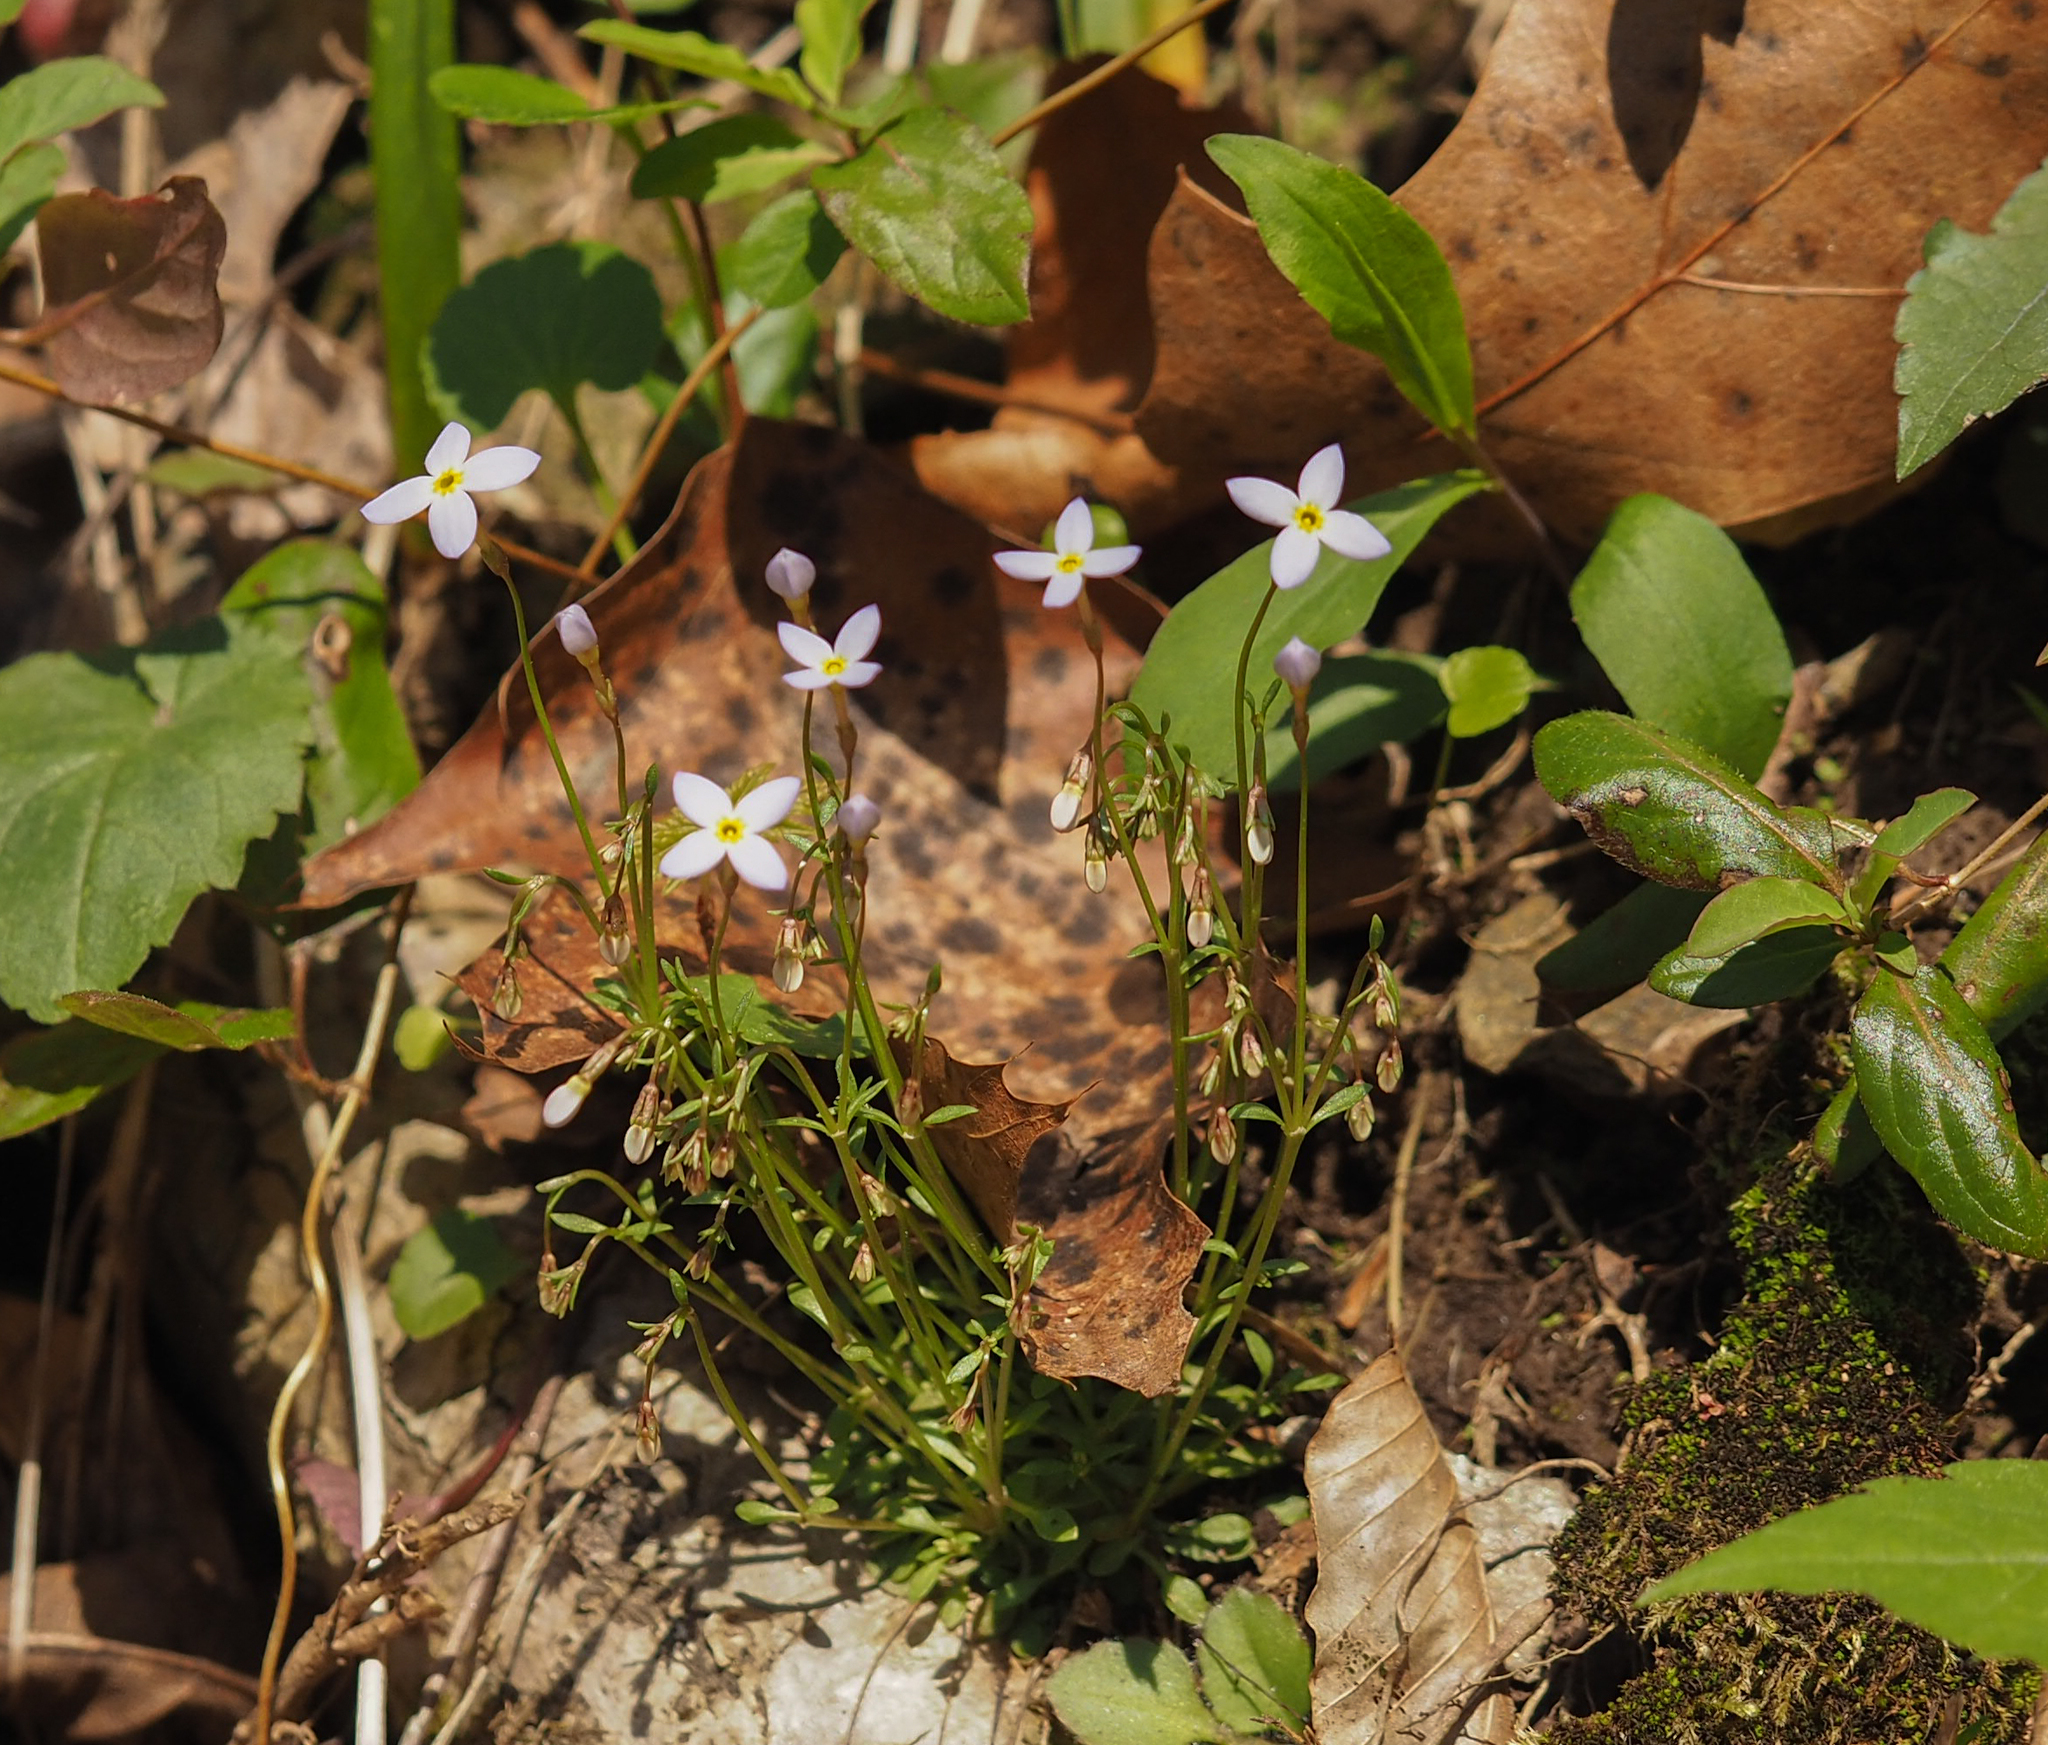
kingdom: Plantae
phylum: Tracheophyta
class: Magnoliopsida
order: Gentianales
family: Rubiaceae
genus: Houstonia
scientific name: Houstonia caerulea
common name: Bluets
